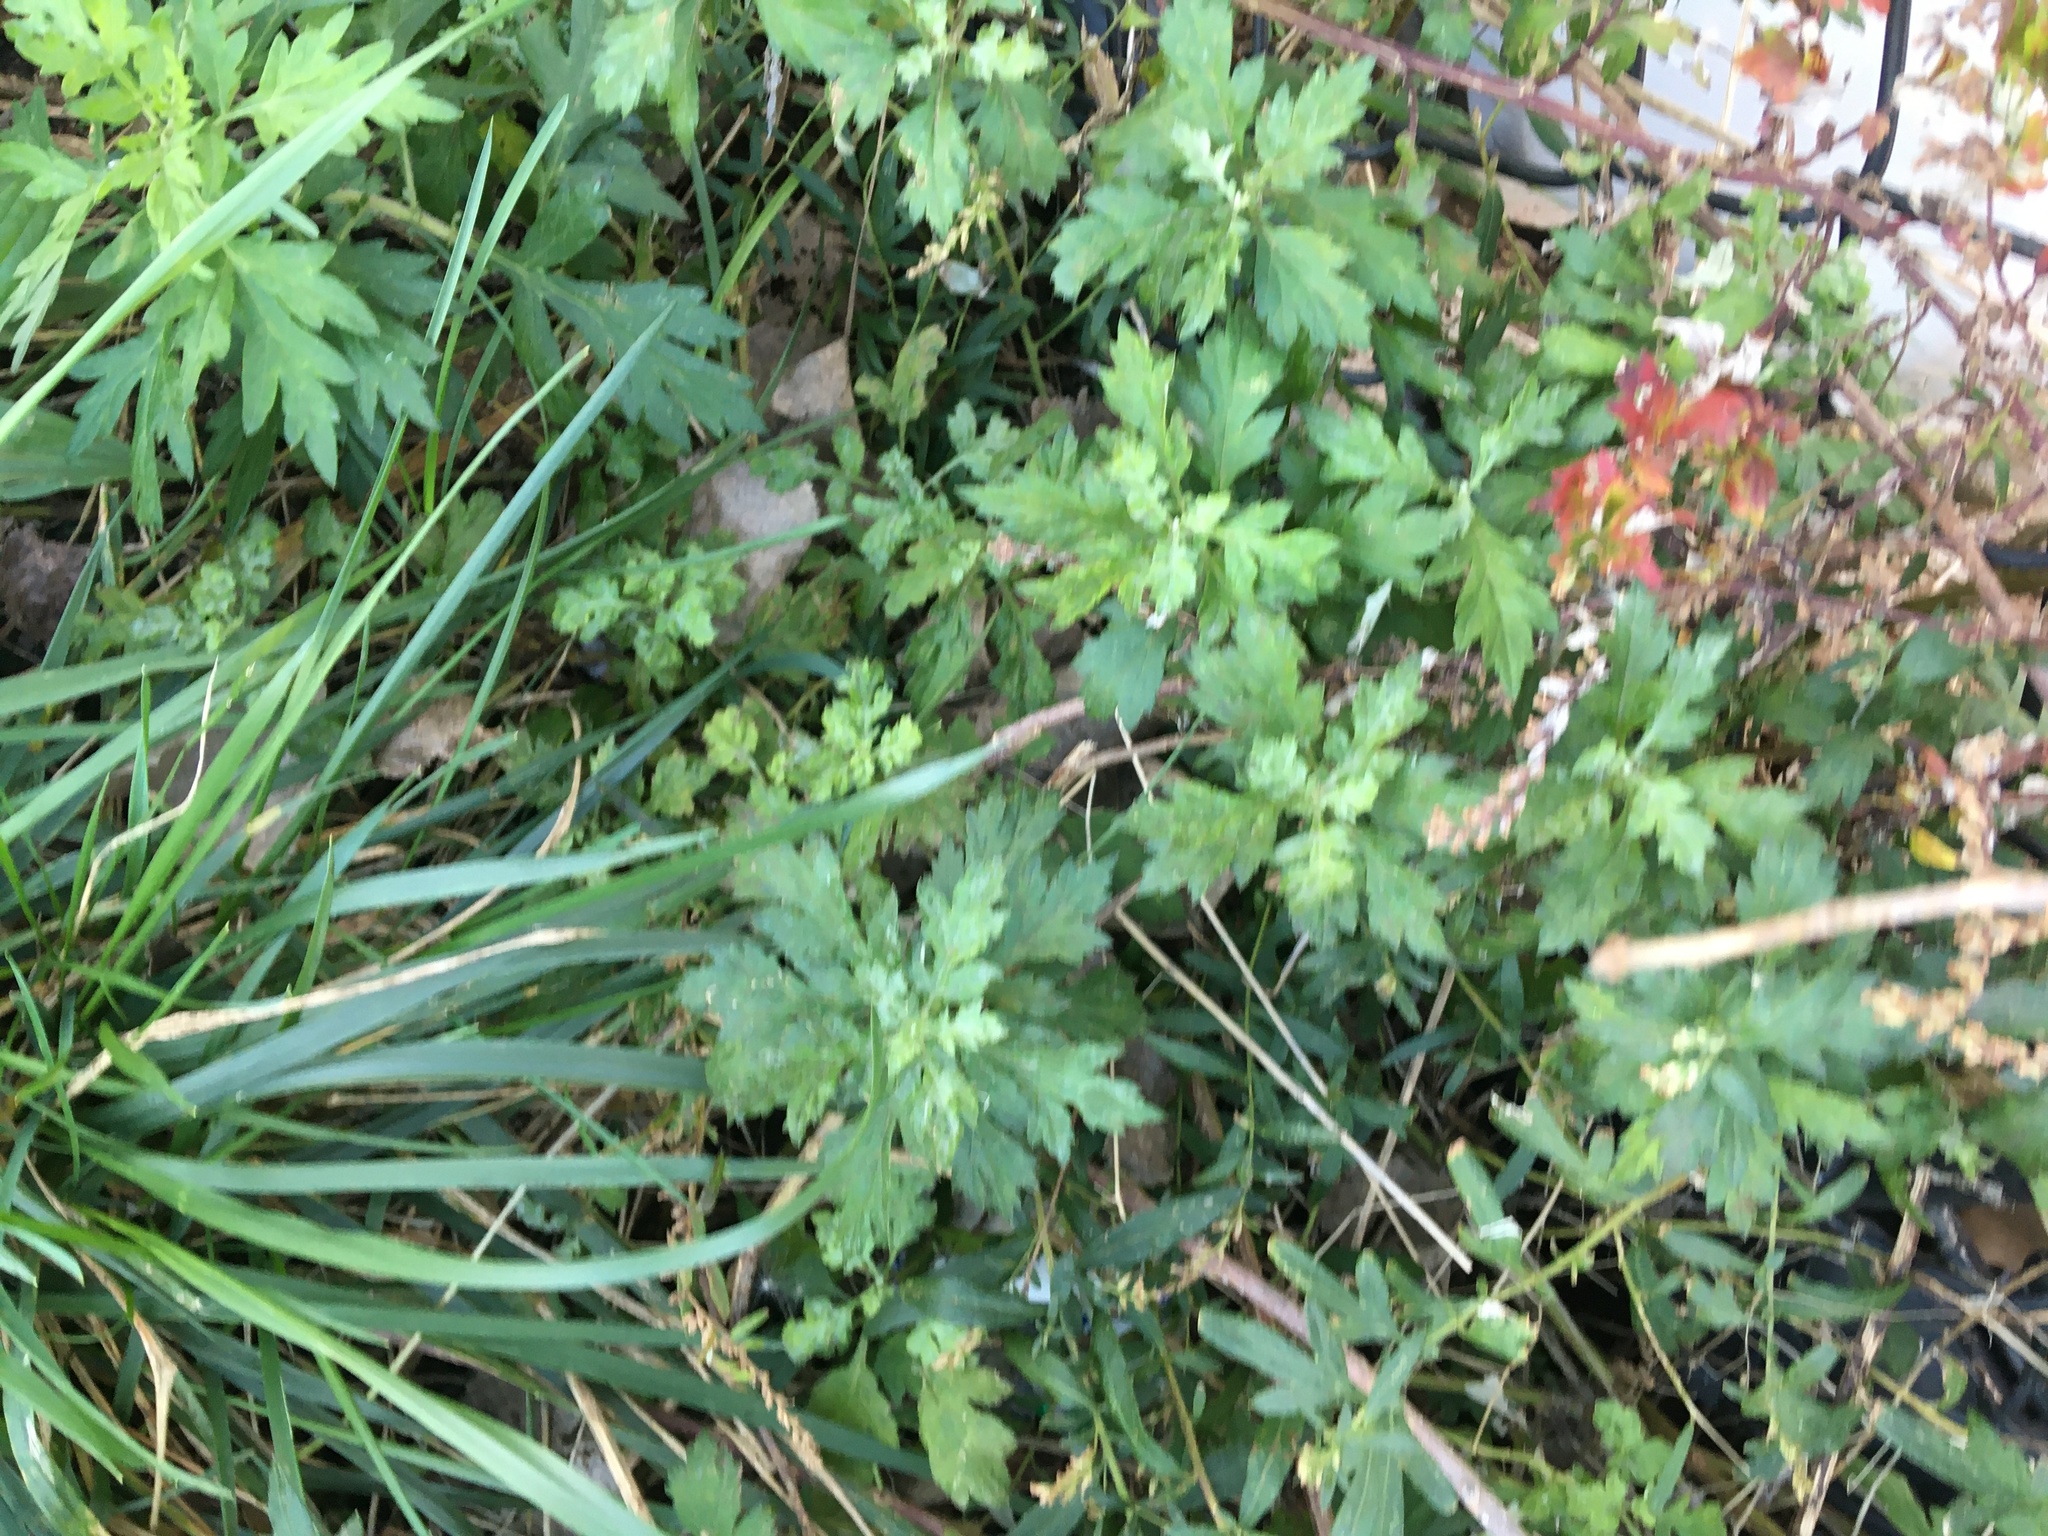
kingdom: Plantae
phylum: Tracheophyta
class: Magnoliopsida
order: Asterales
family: Asteraceae
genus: Artemisia
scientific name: Artemisia vulgaris
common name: Mugwort
